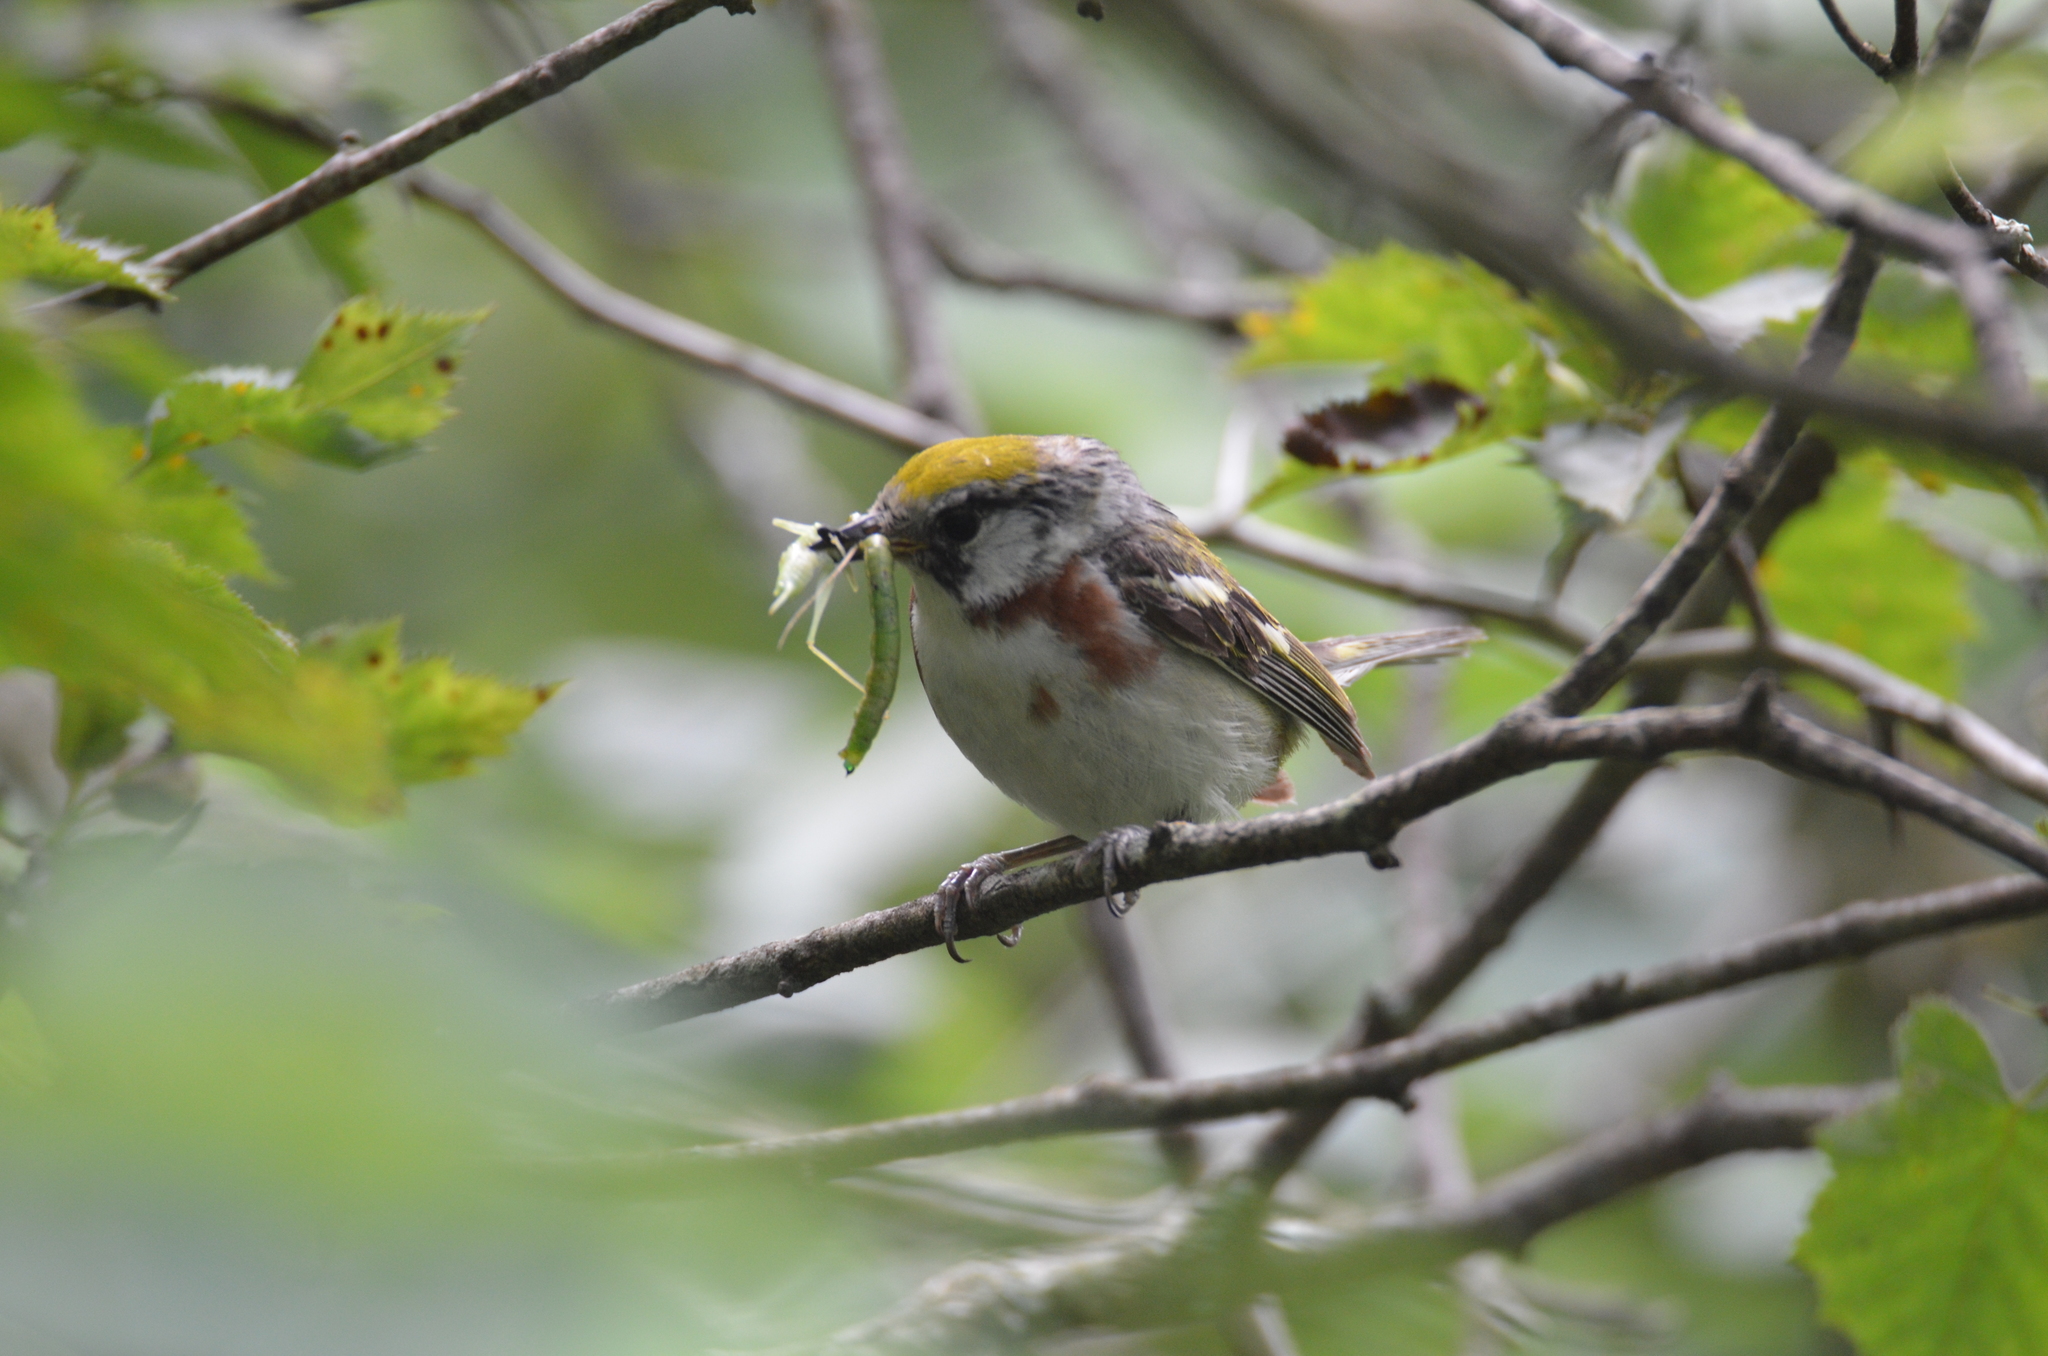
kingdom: Animalia
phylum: Chordata
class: Aves
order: Passeriformes
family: Parulidae
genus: Setophaga
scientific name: Setophaga pensylvanica
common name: Chestnut-sided warbler
